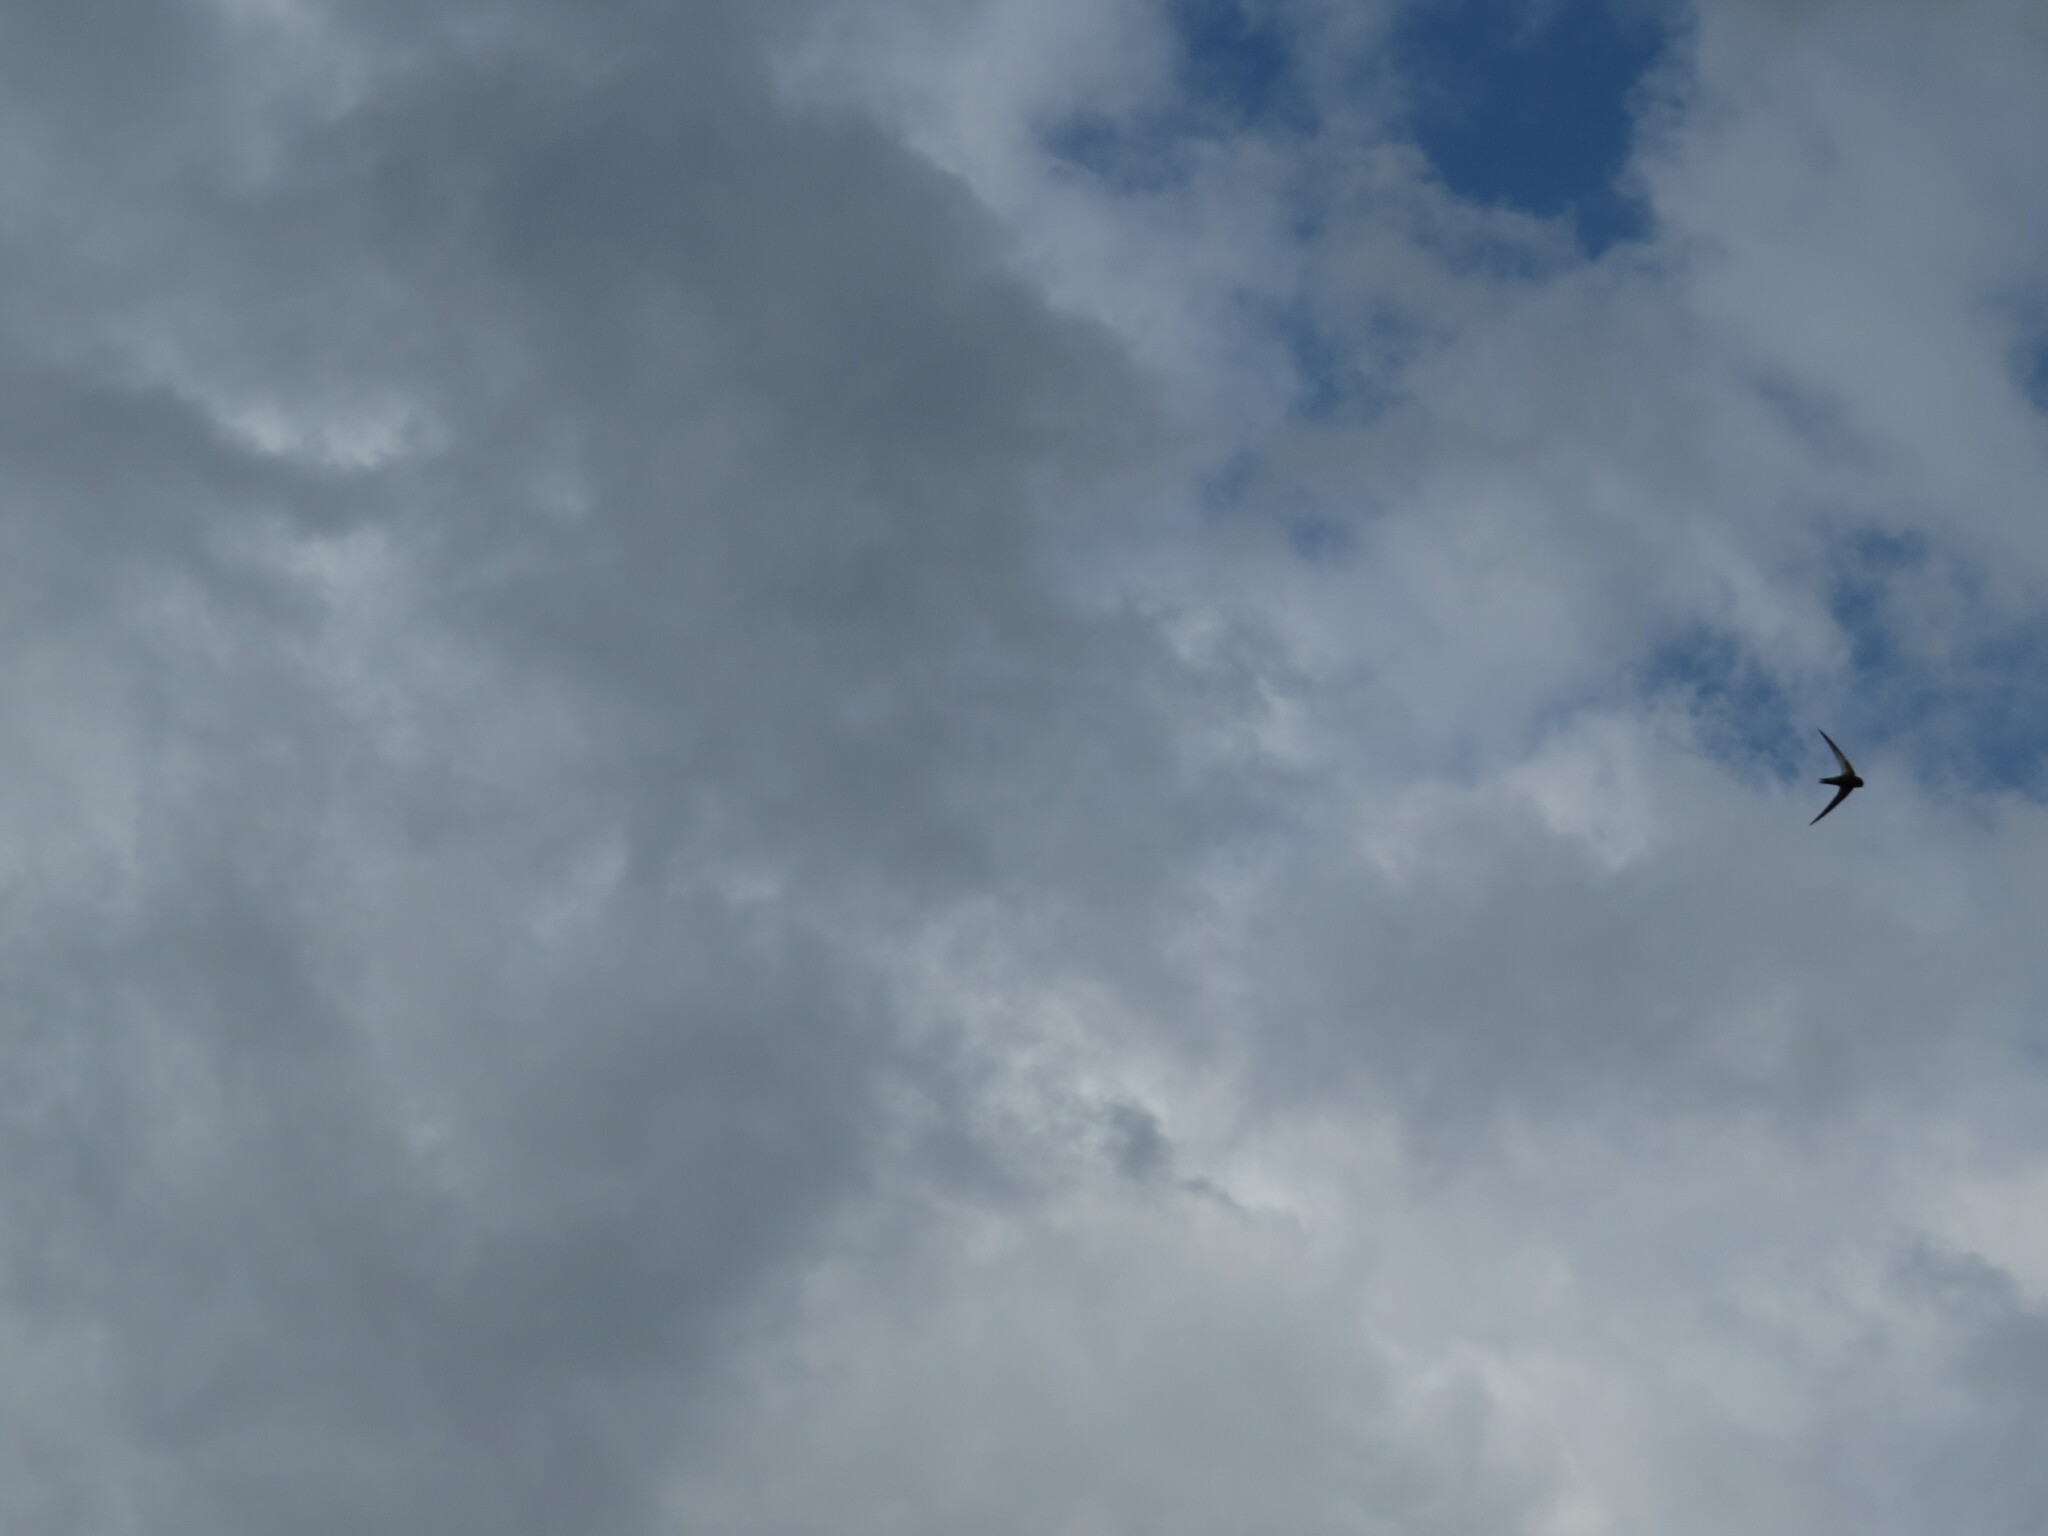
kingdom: Animalia
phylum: Chordata
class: Aves
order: Apodiformes
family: Apodidae
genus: Apus
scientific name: Apus apus
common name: Common swift
